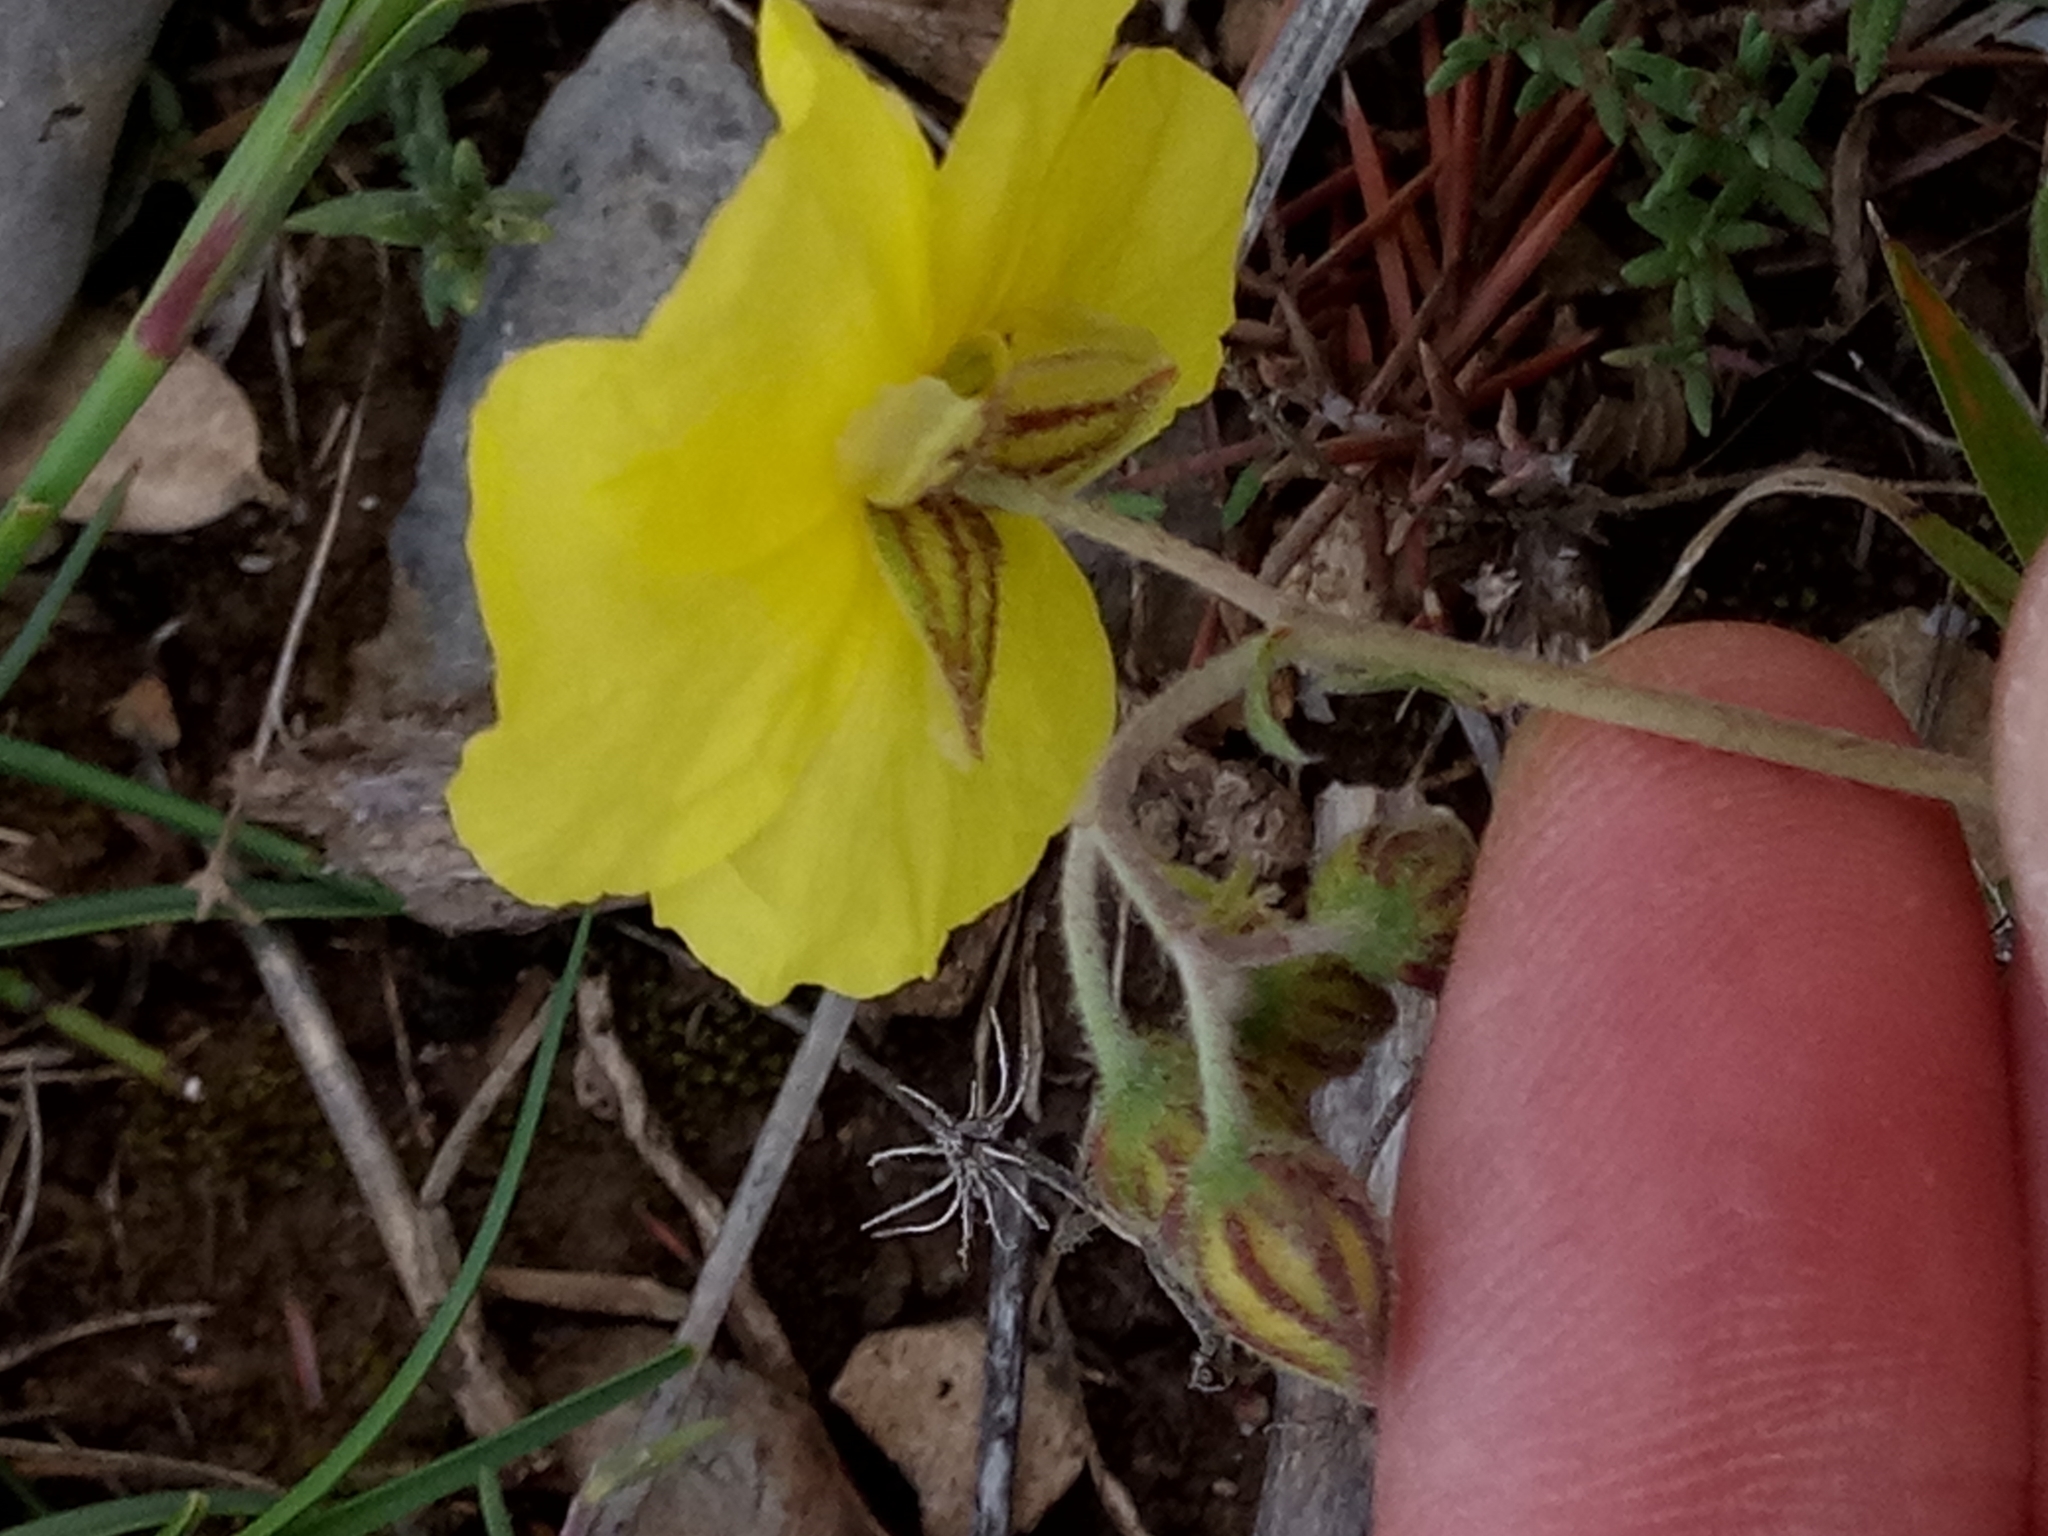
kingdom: Plantae
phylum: Tracheophyta
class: Magnoliopsida
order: Malvales
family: Cistaceae
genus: Helianthemum
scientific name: Helianthemum croceum
